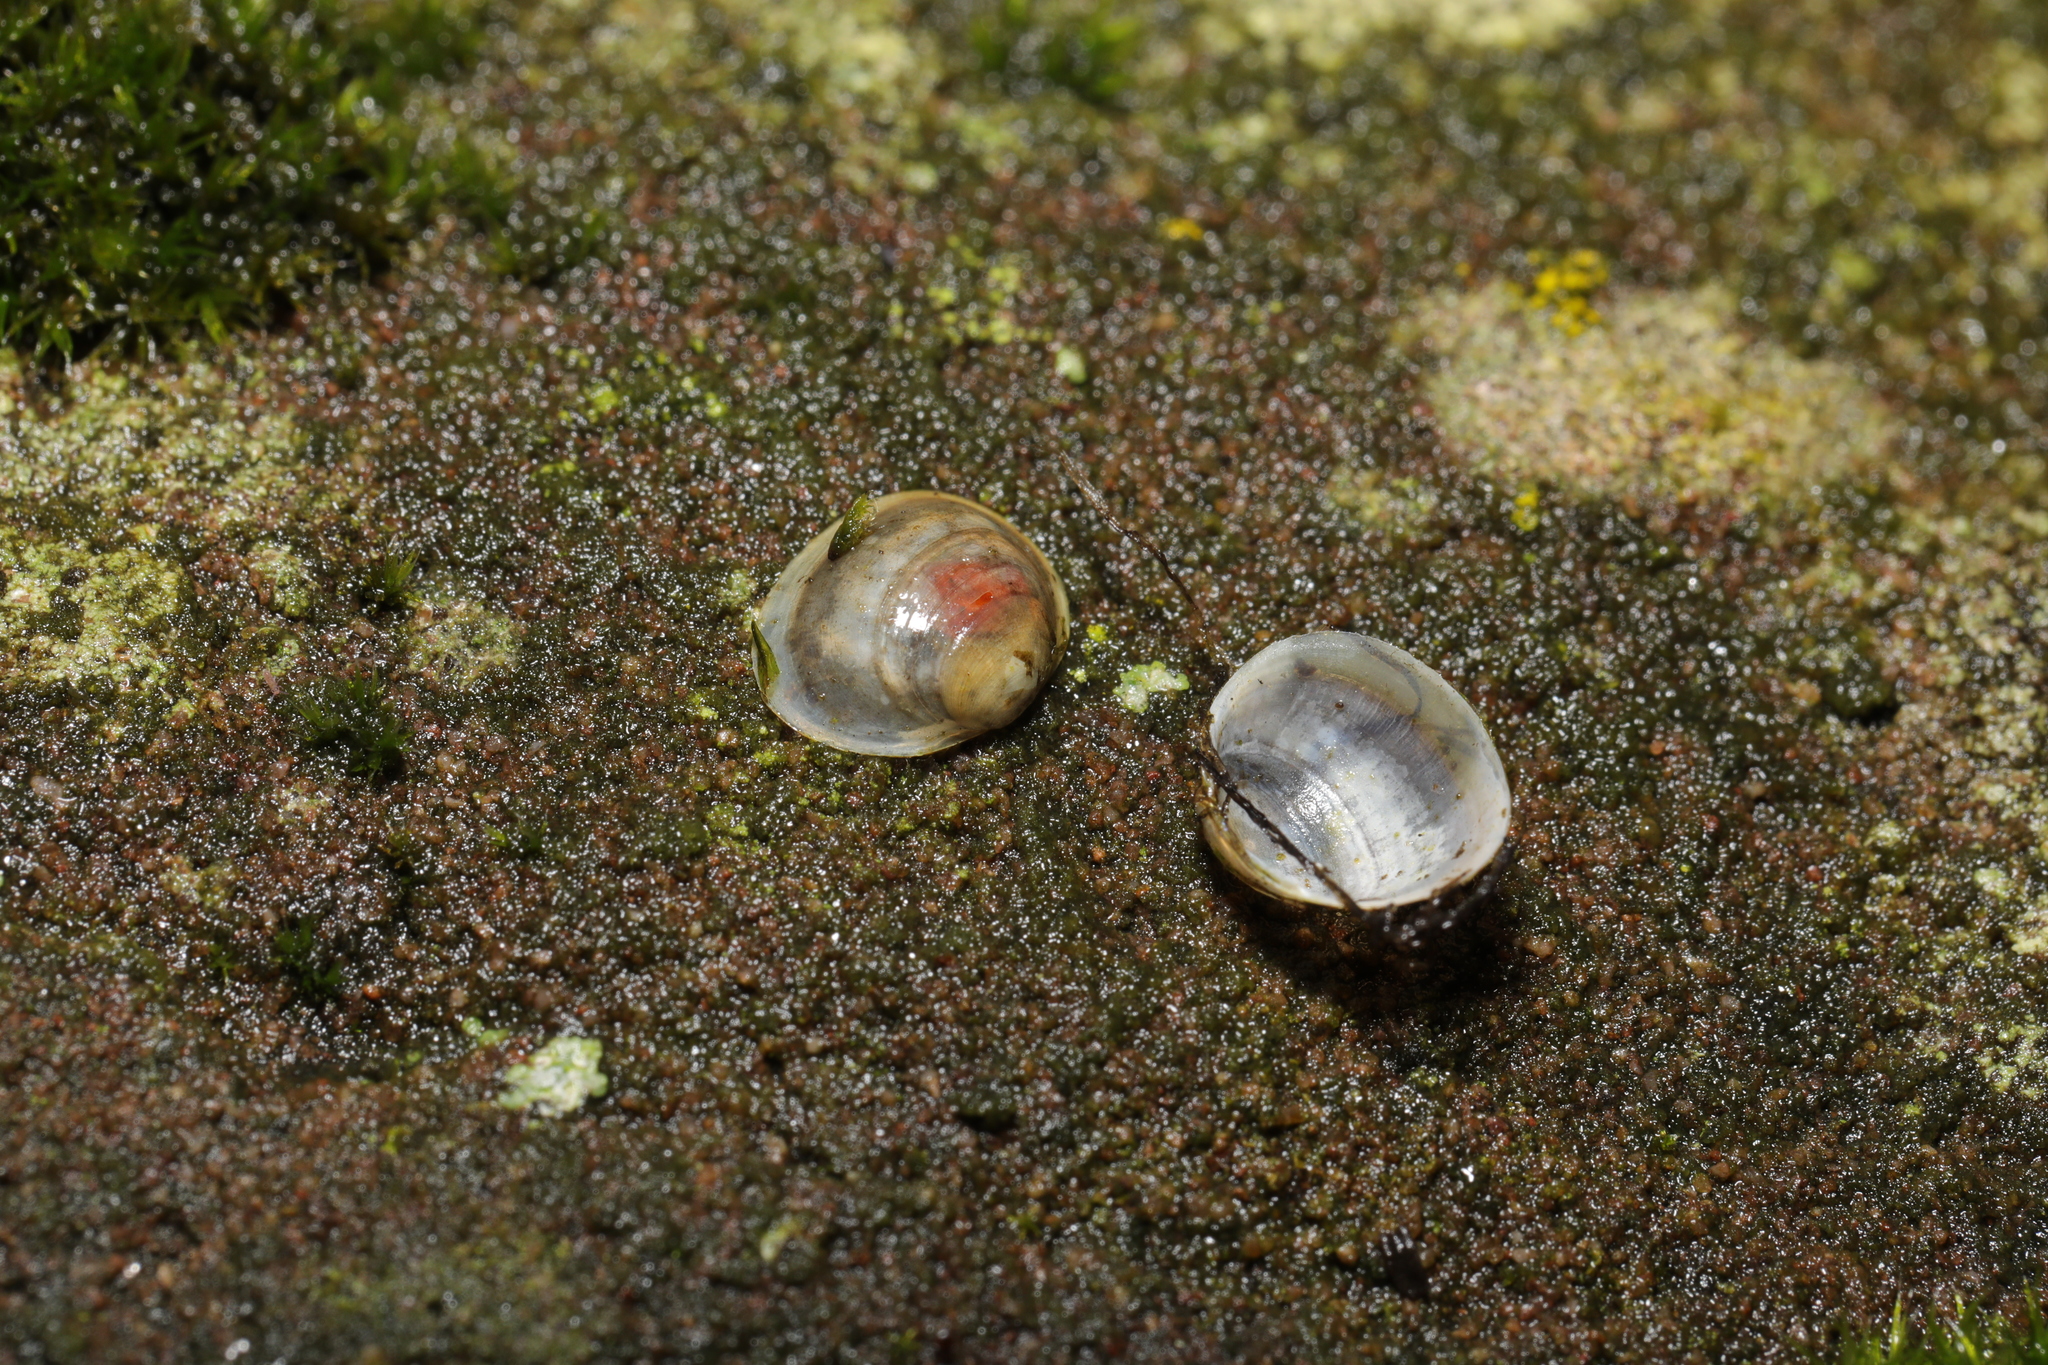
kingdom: Animalia
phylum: Mollusca
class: Bivalvia
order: Sphaeriida
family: Sphaeriidae
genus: Sphaerium
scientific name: Sphaerium corneum
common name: Horny orb mussel
